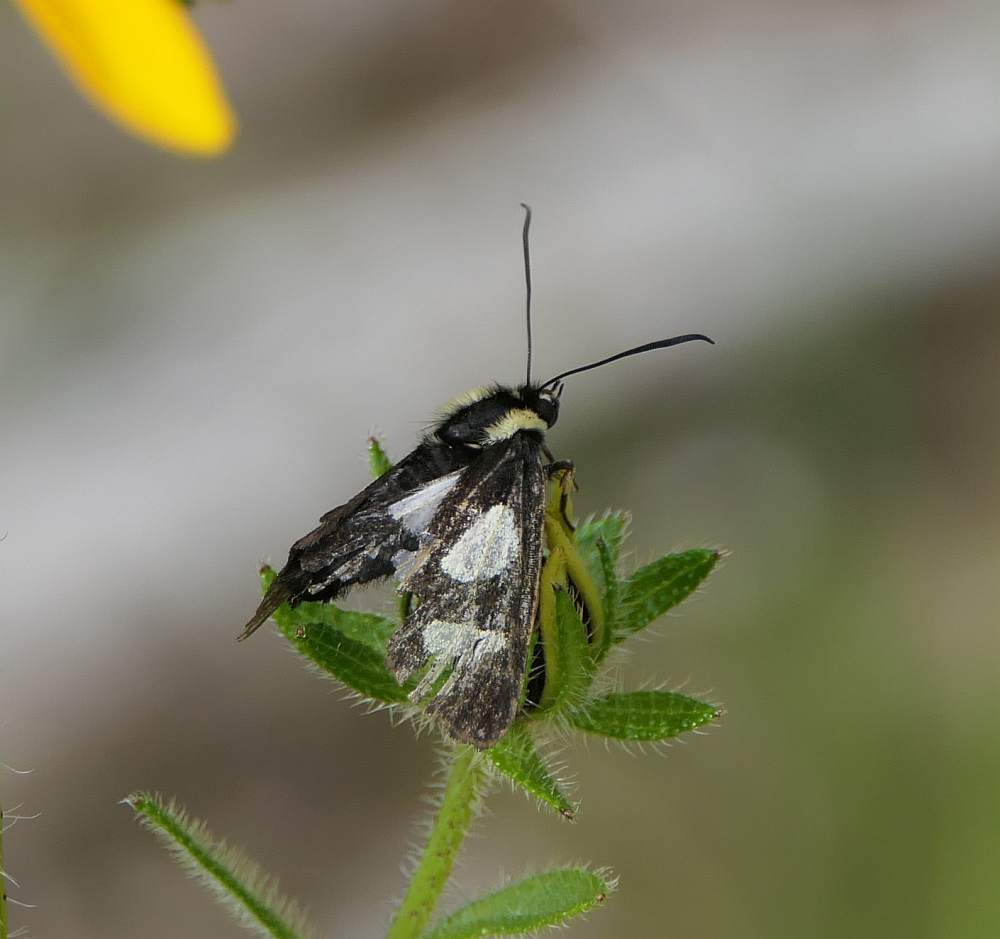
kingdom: Animalia
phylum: Arthropoda
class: Insecta
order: Lepidoptera
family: Noctuidae
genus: Alypia
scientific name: Alypia octomaculata
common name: Eight-spotted forester
